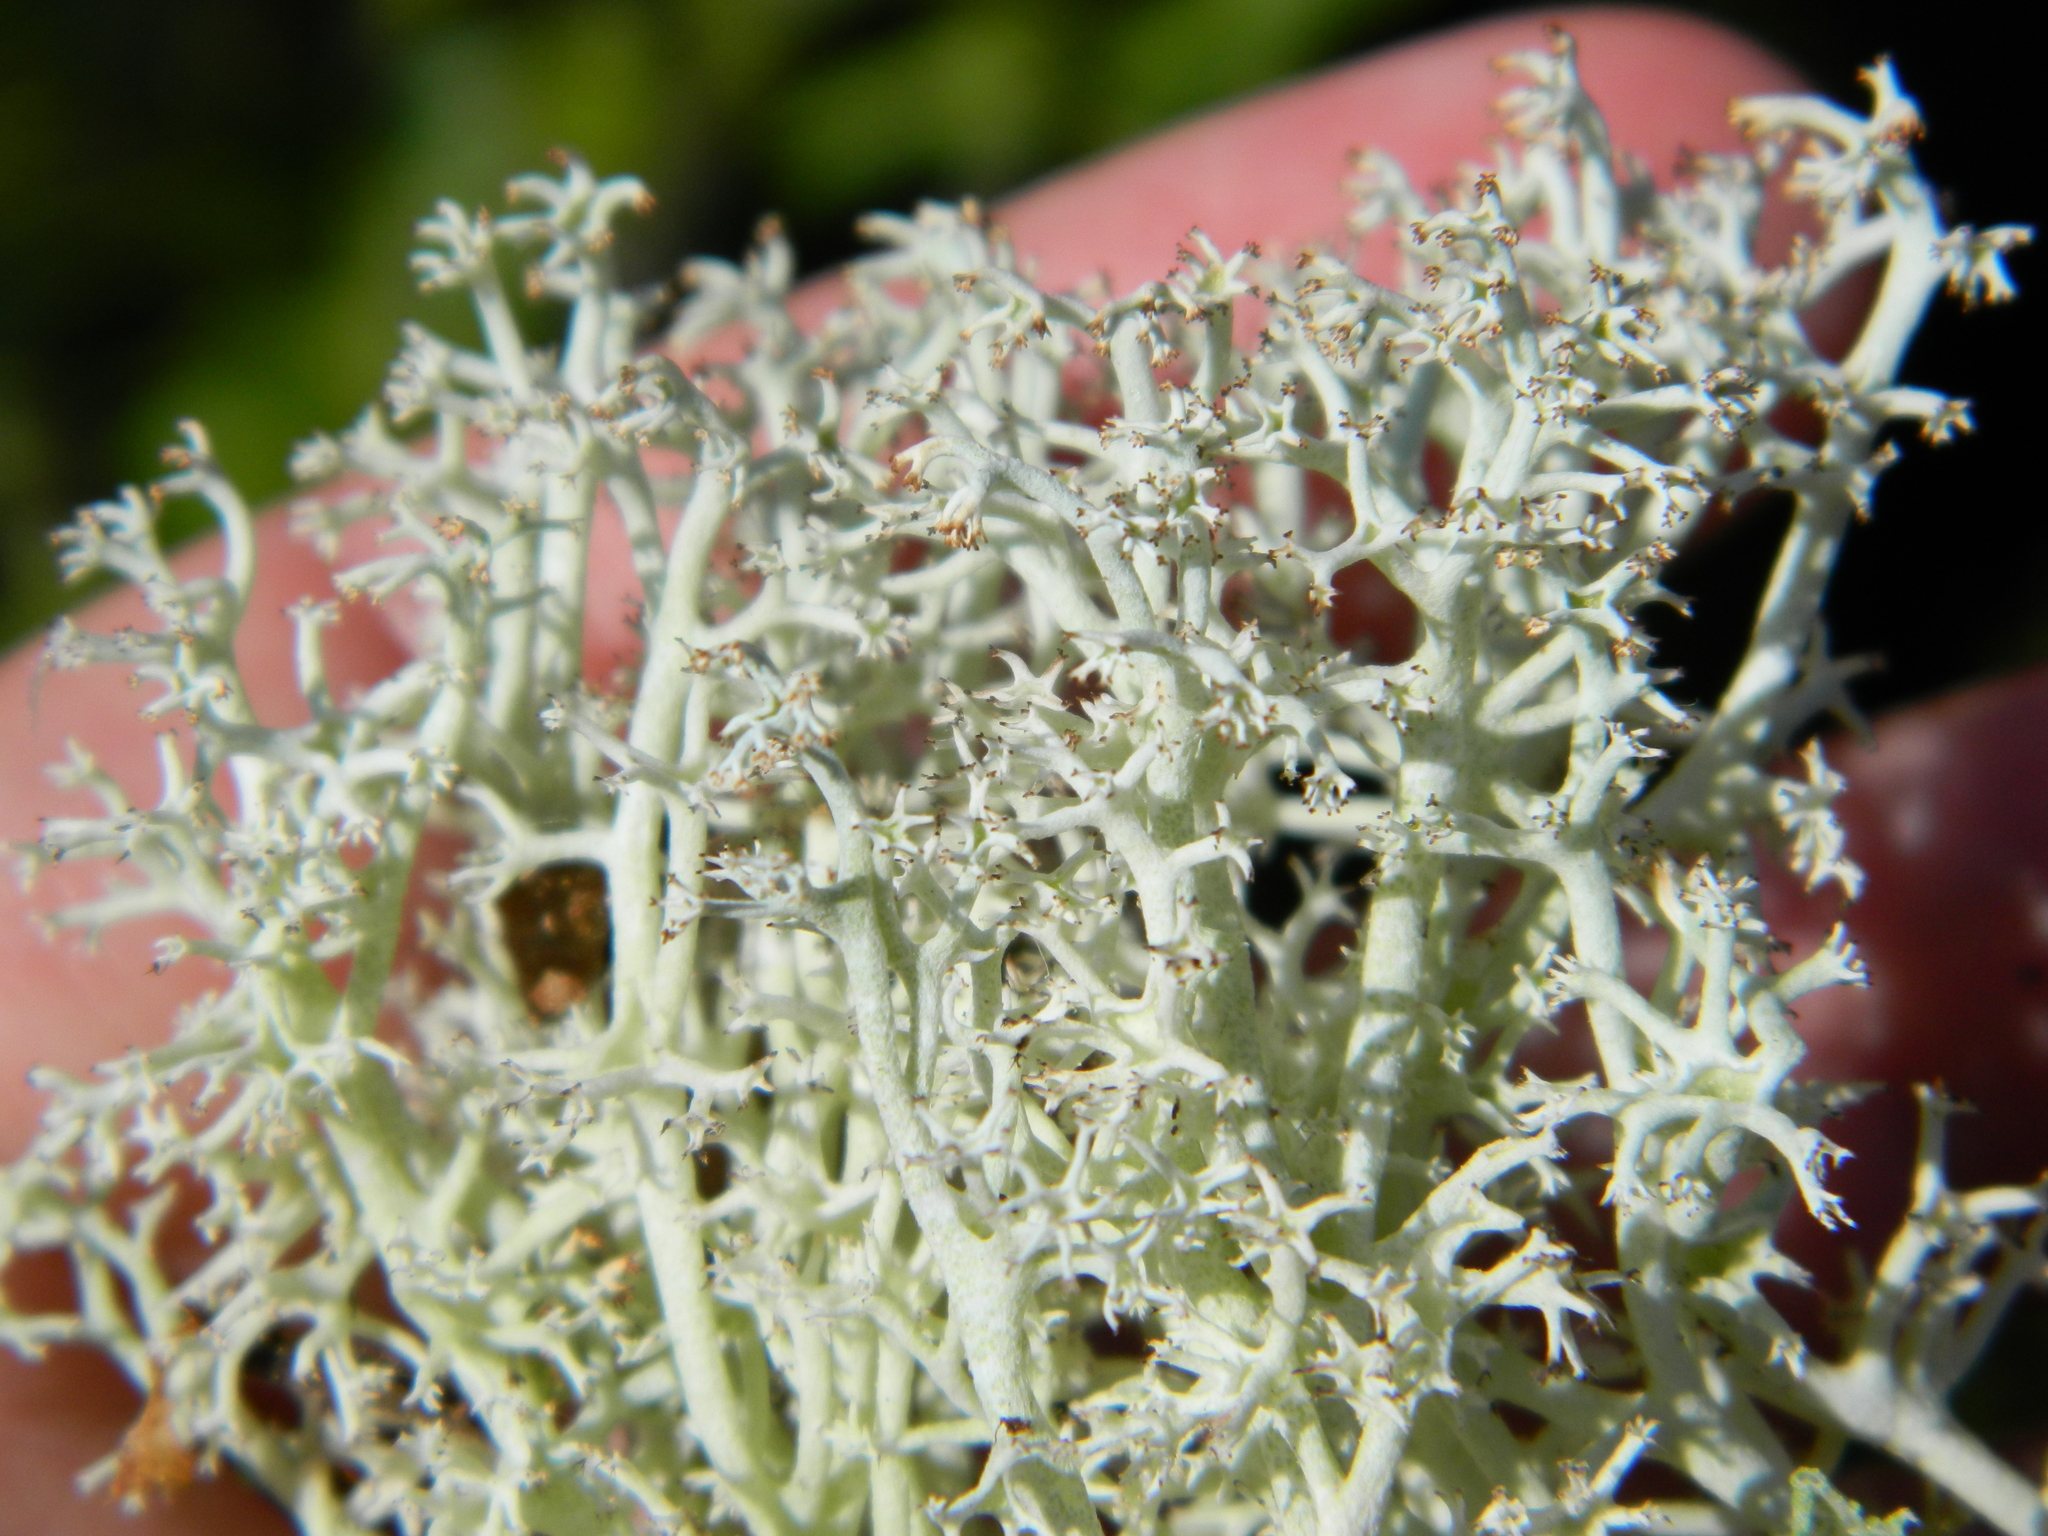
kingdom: Fungi
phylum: Ascomycota
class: Lecanoromycetes
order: Lecanorales
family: Cladoniaceae
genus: Cladonia
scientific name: Cladonia rangiferina
